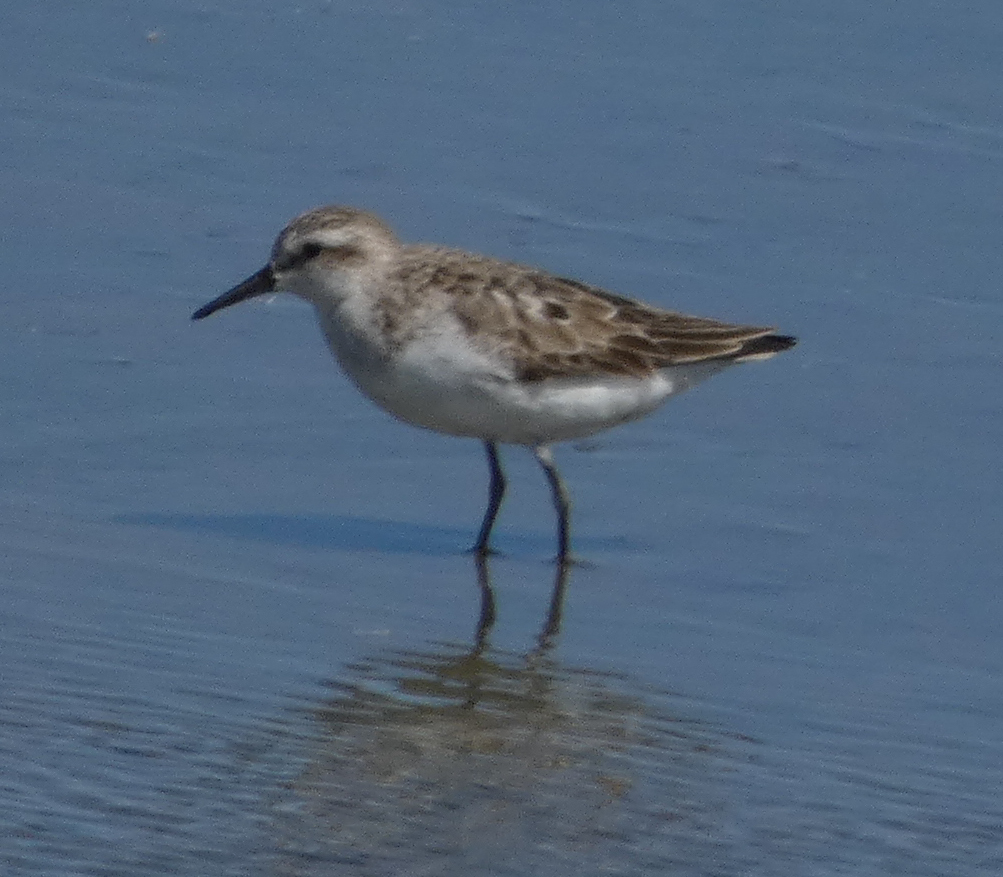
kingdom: Animalia
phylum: Chordata
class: Aves
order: Charadriiformes
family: Scolopacidae
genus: Calidris
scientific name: Calidris pusilla
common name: Semipalmated sandpiper
